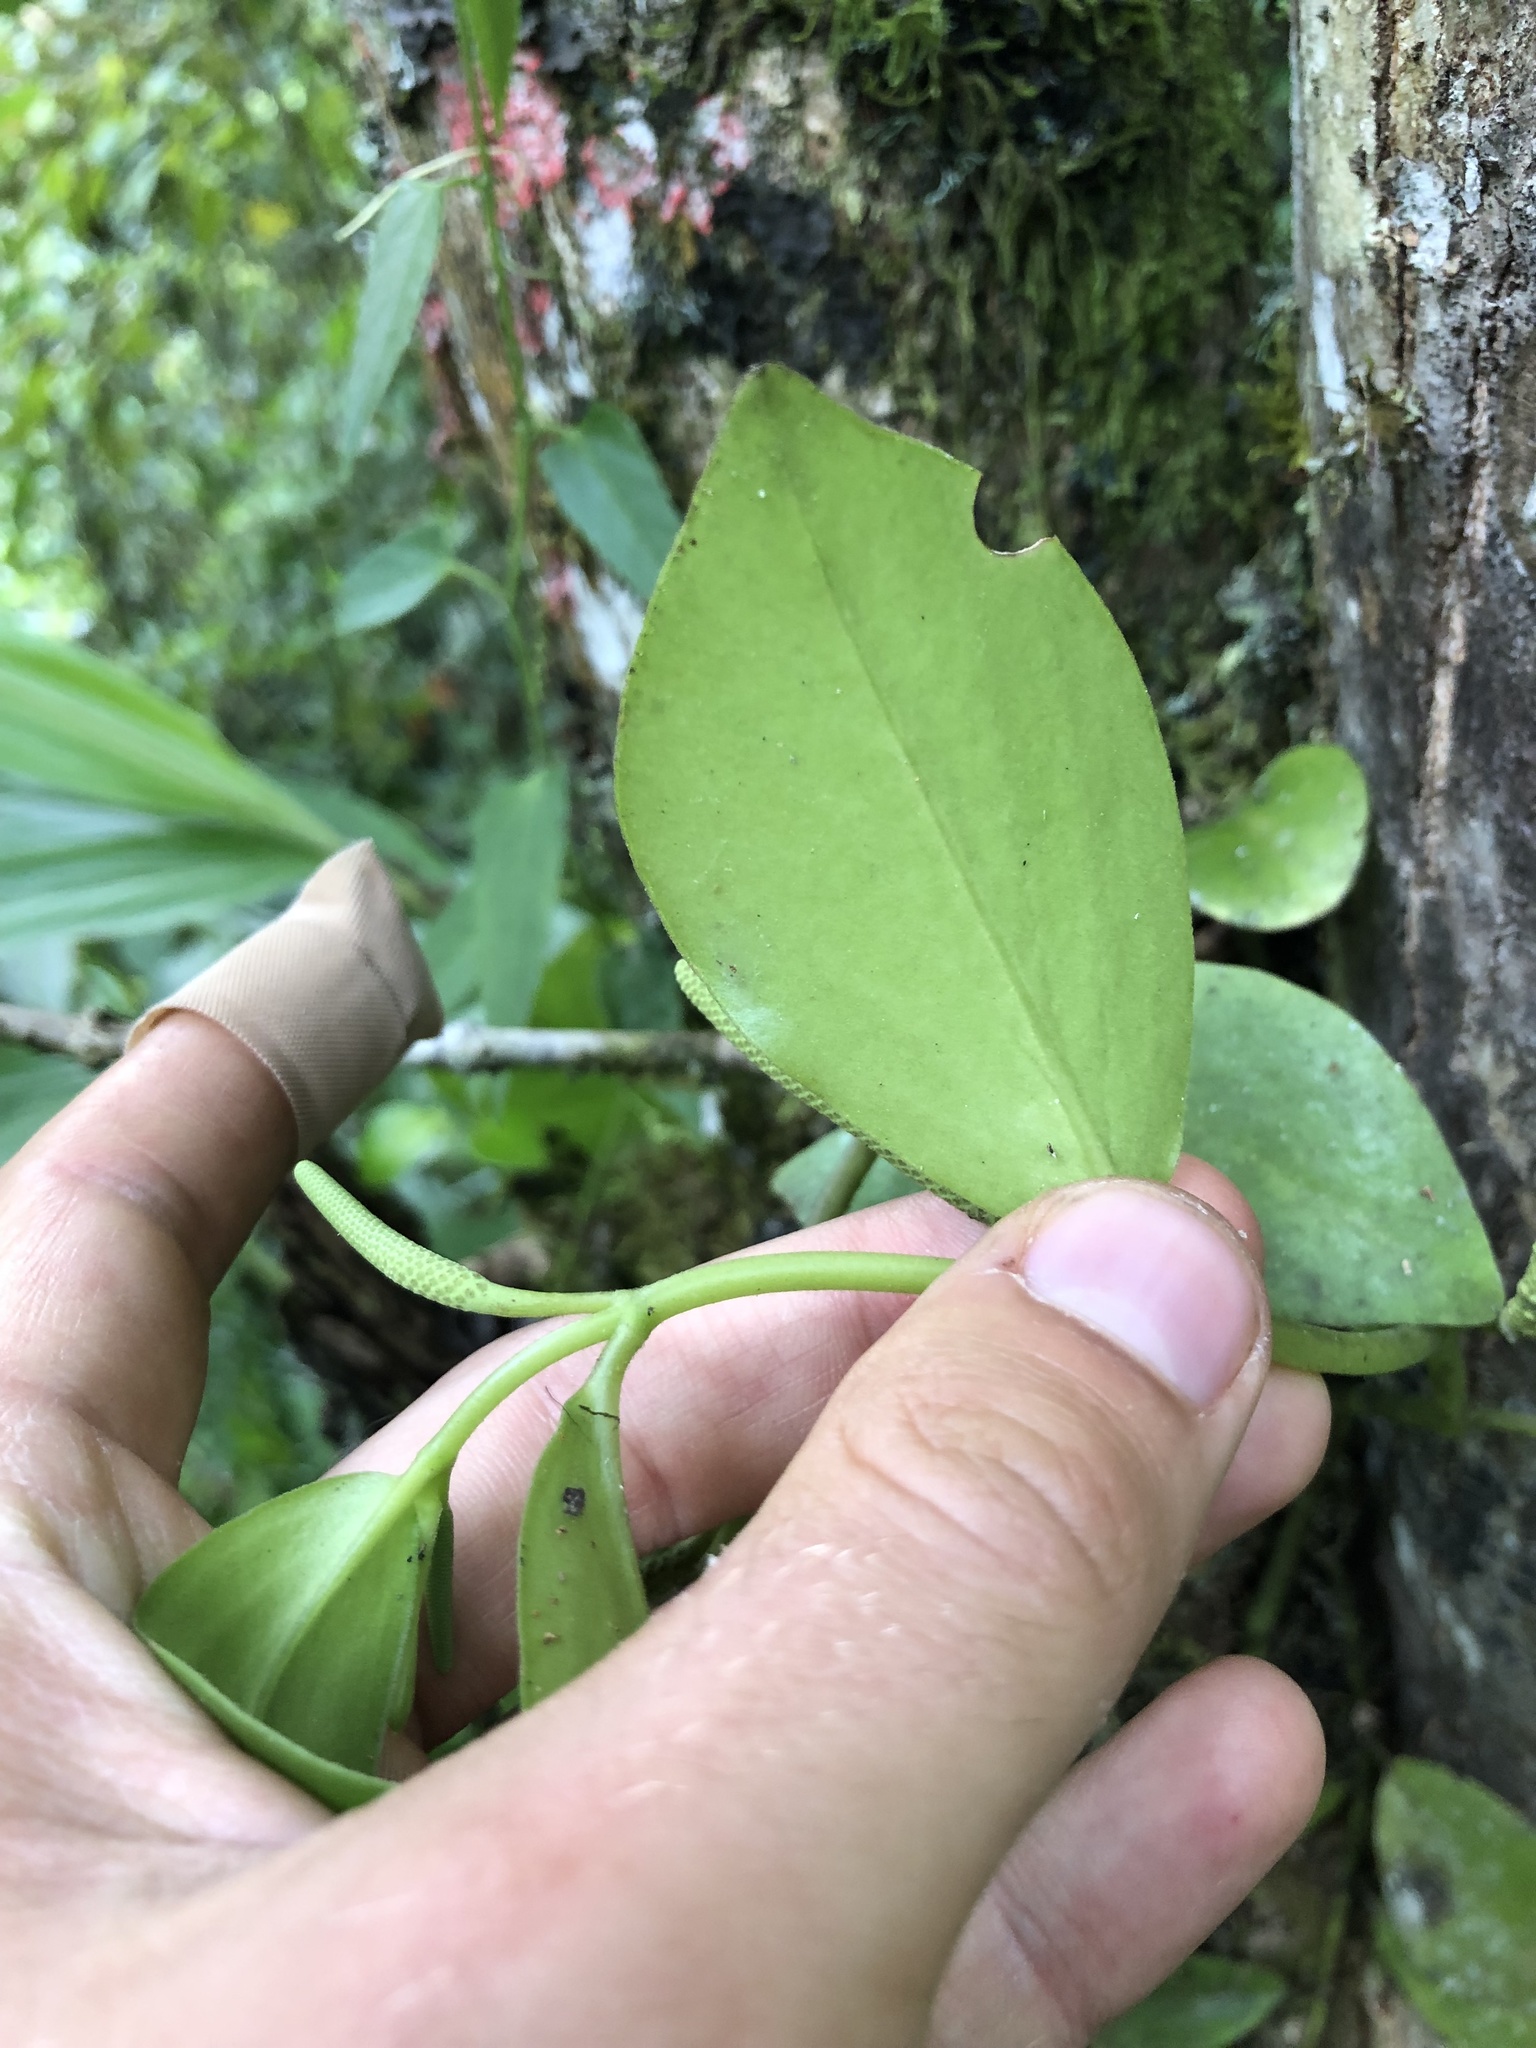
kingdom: Plantae
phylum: Tracheophyta
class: Magnoliopsida
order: Piperales
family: Piperaceae
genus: Peperomia
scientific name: Peperomia trianae
